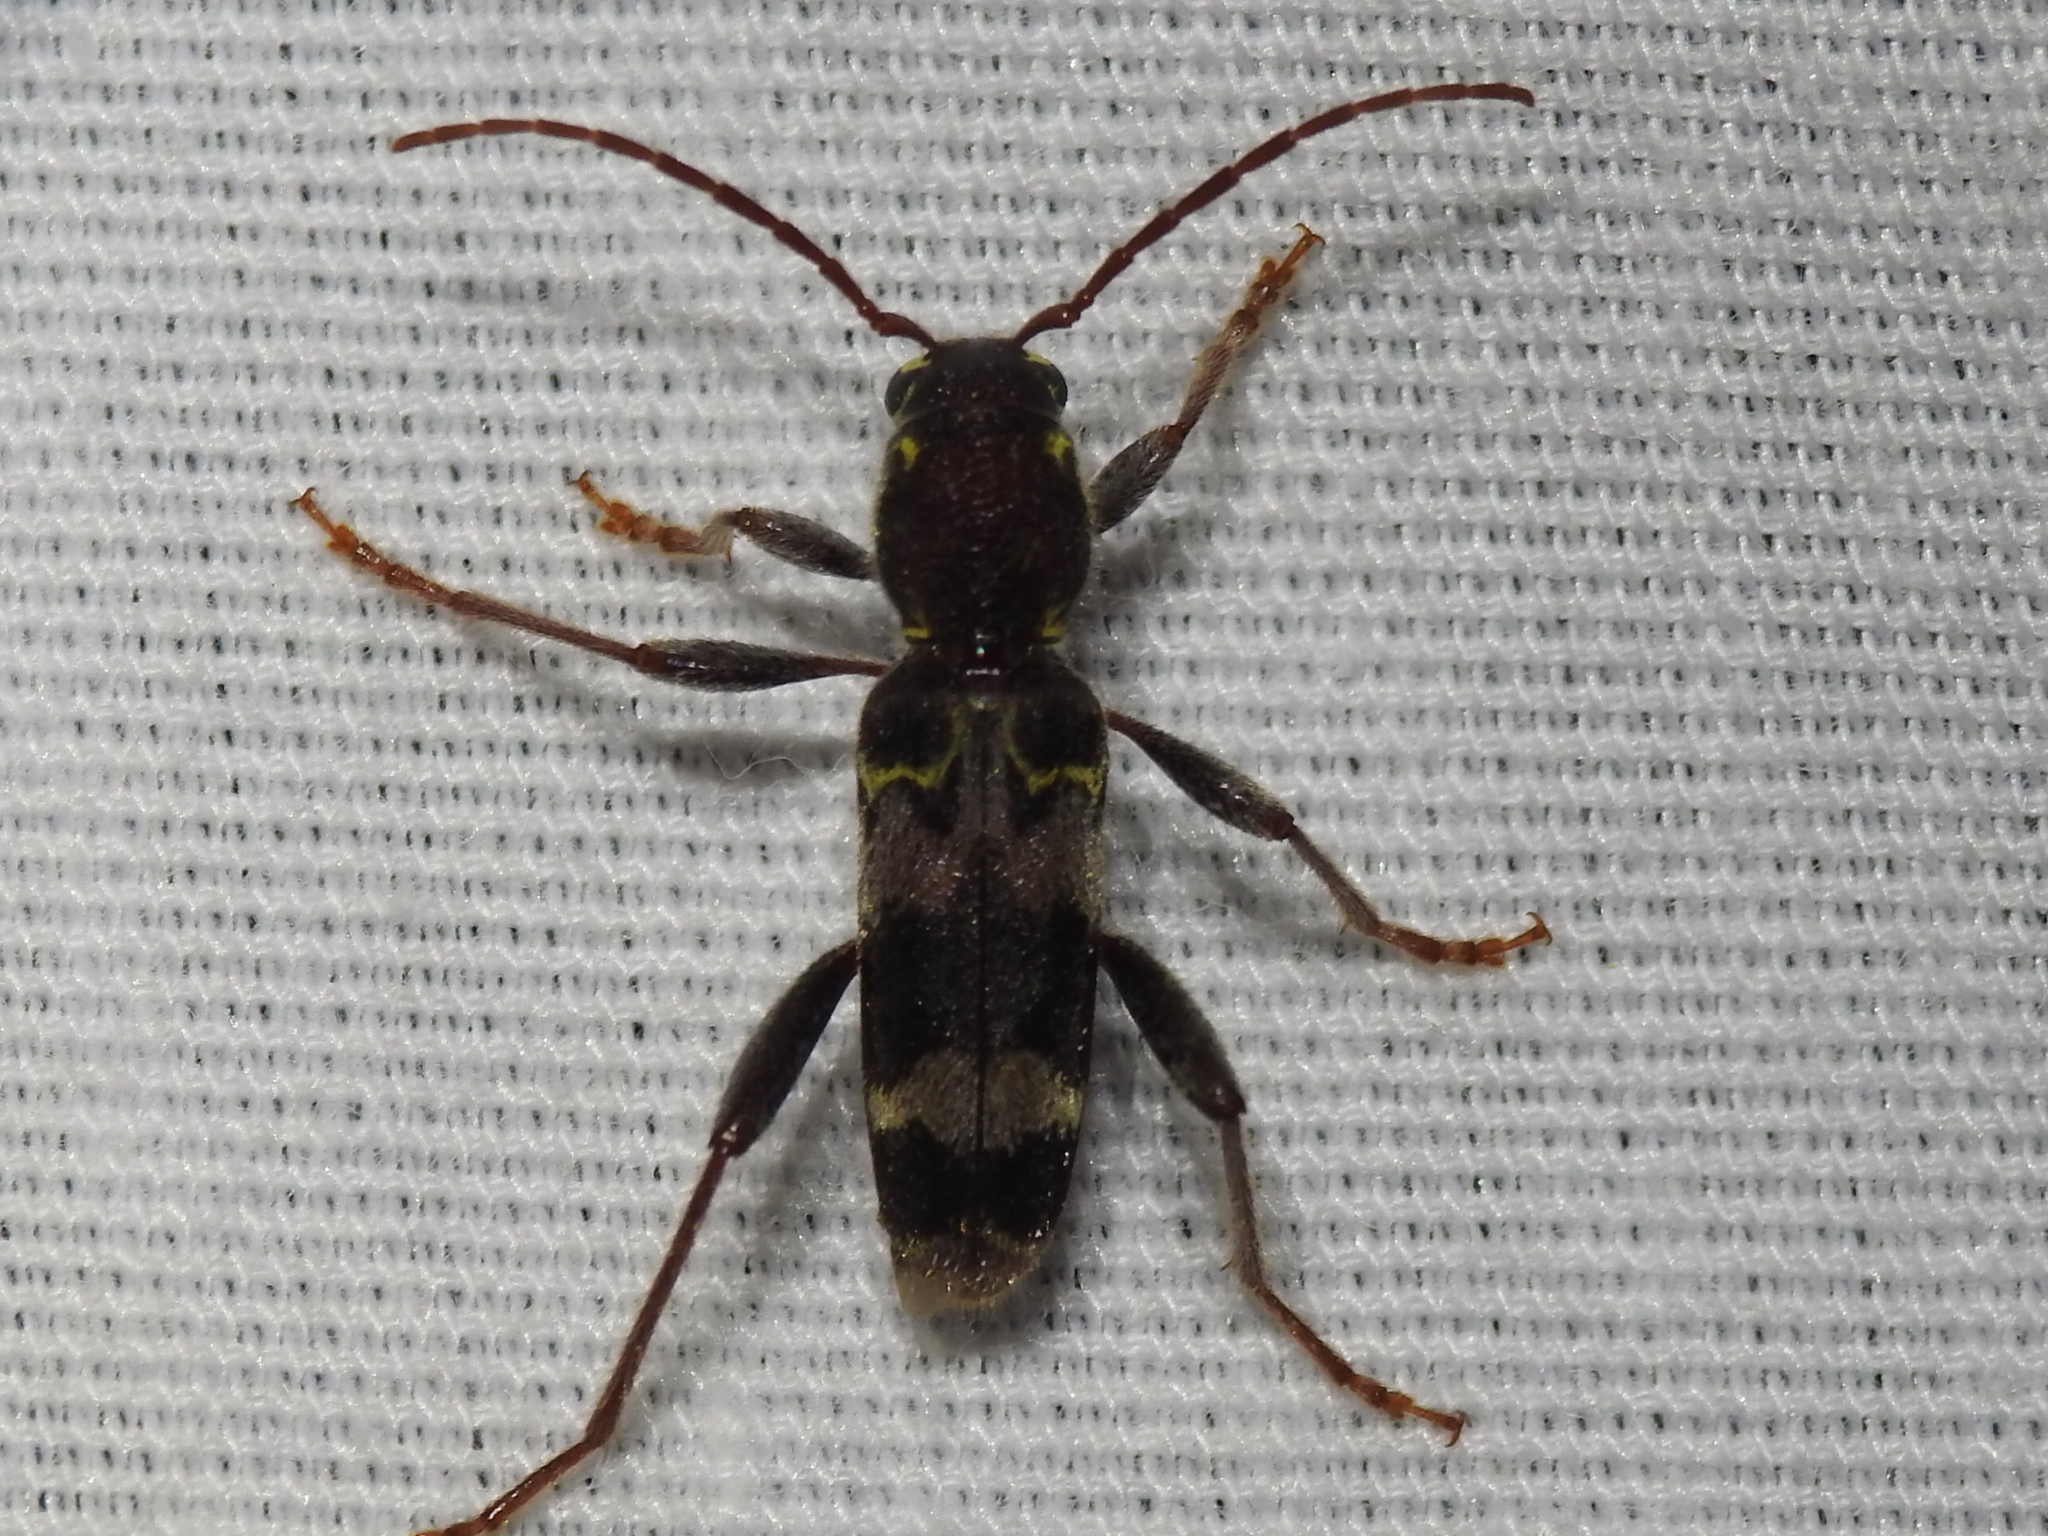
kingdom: Animalia
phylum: Arthropoda
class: Insecta
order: Coleoptera
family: Cerambycidae
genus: Xylotrechus
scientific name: Xylotrechus colonus
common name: Long-horned beetle
